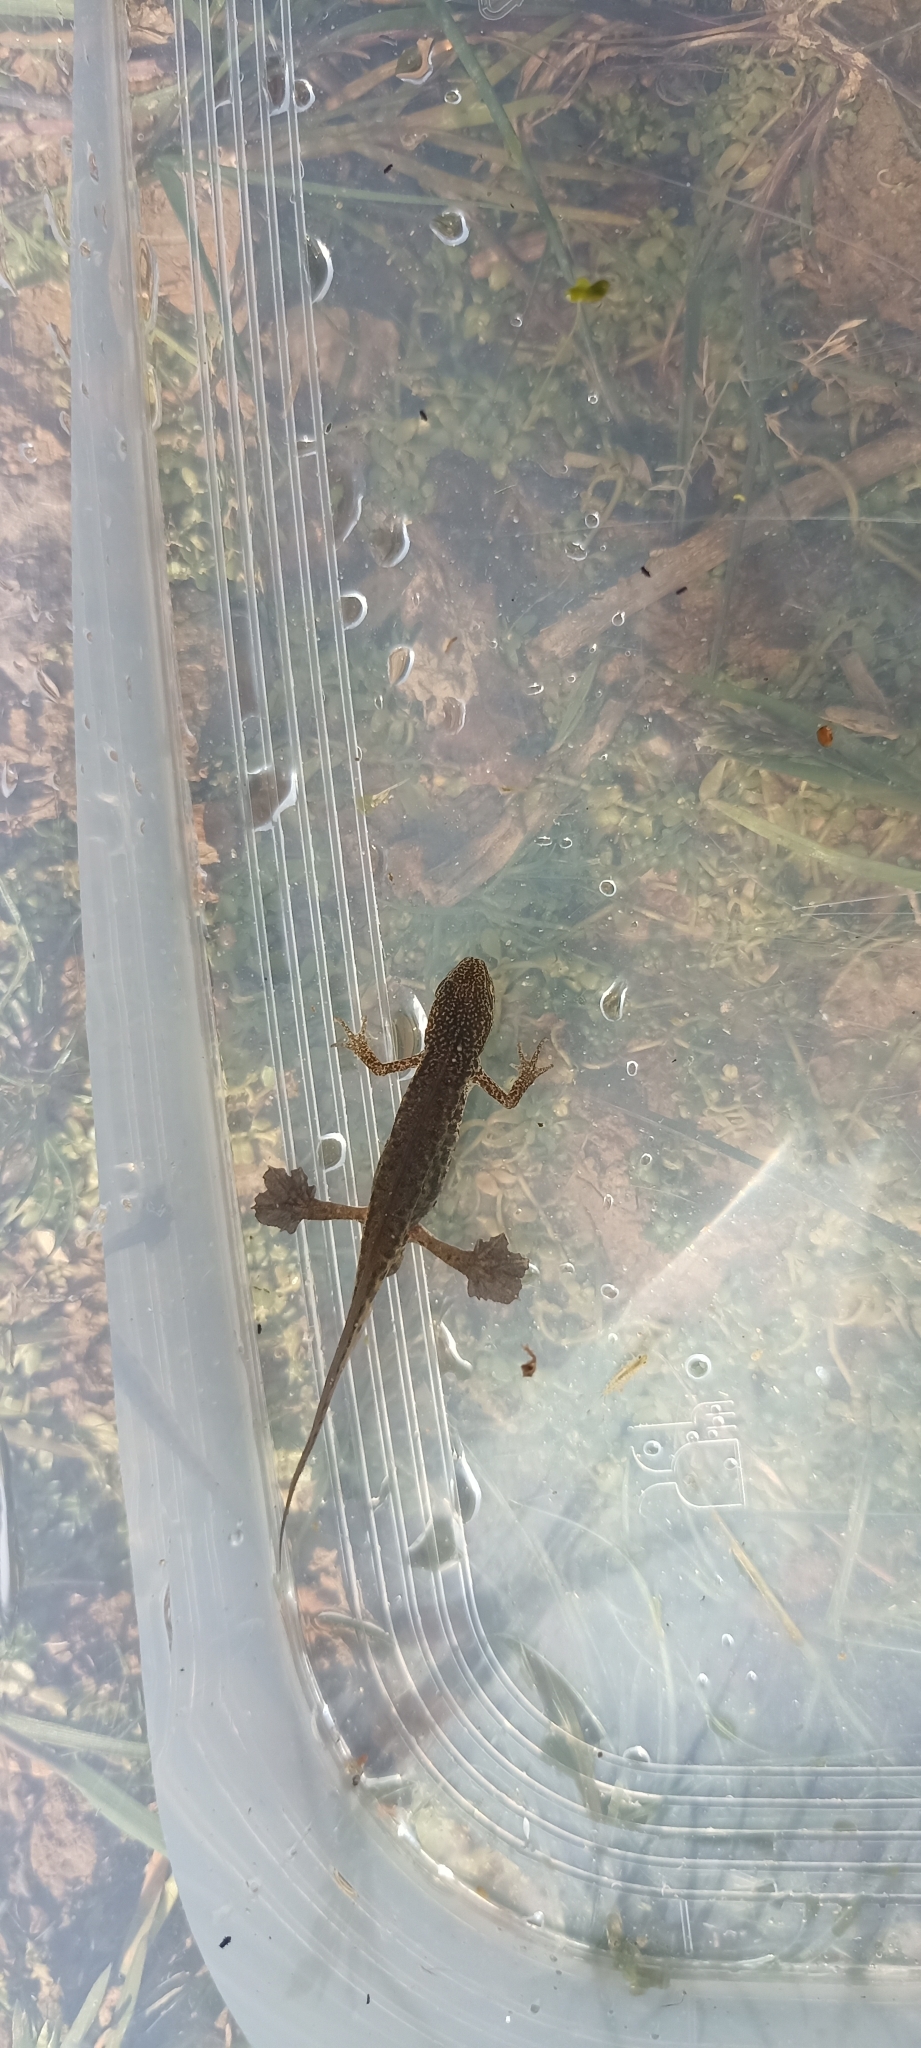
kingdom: Animalia
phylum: Chordata
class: Amphibia
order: Caudata
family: Salamandridae
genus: Lissotriton
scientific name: Lissotriton helveticus
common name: Palmate newt
